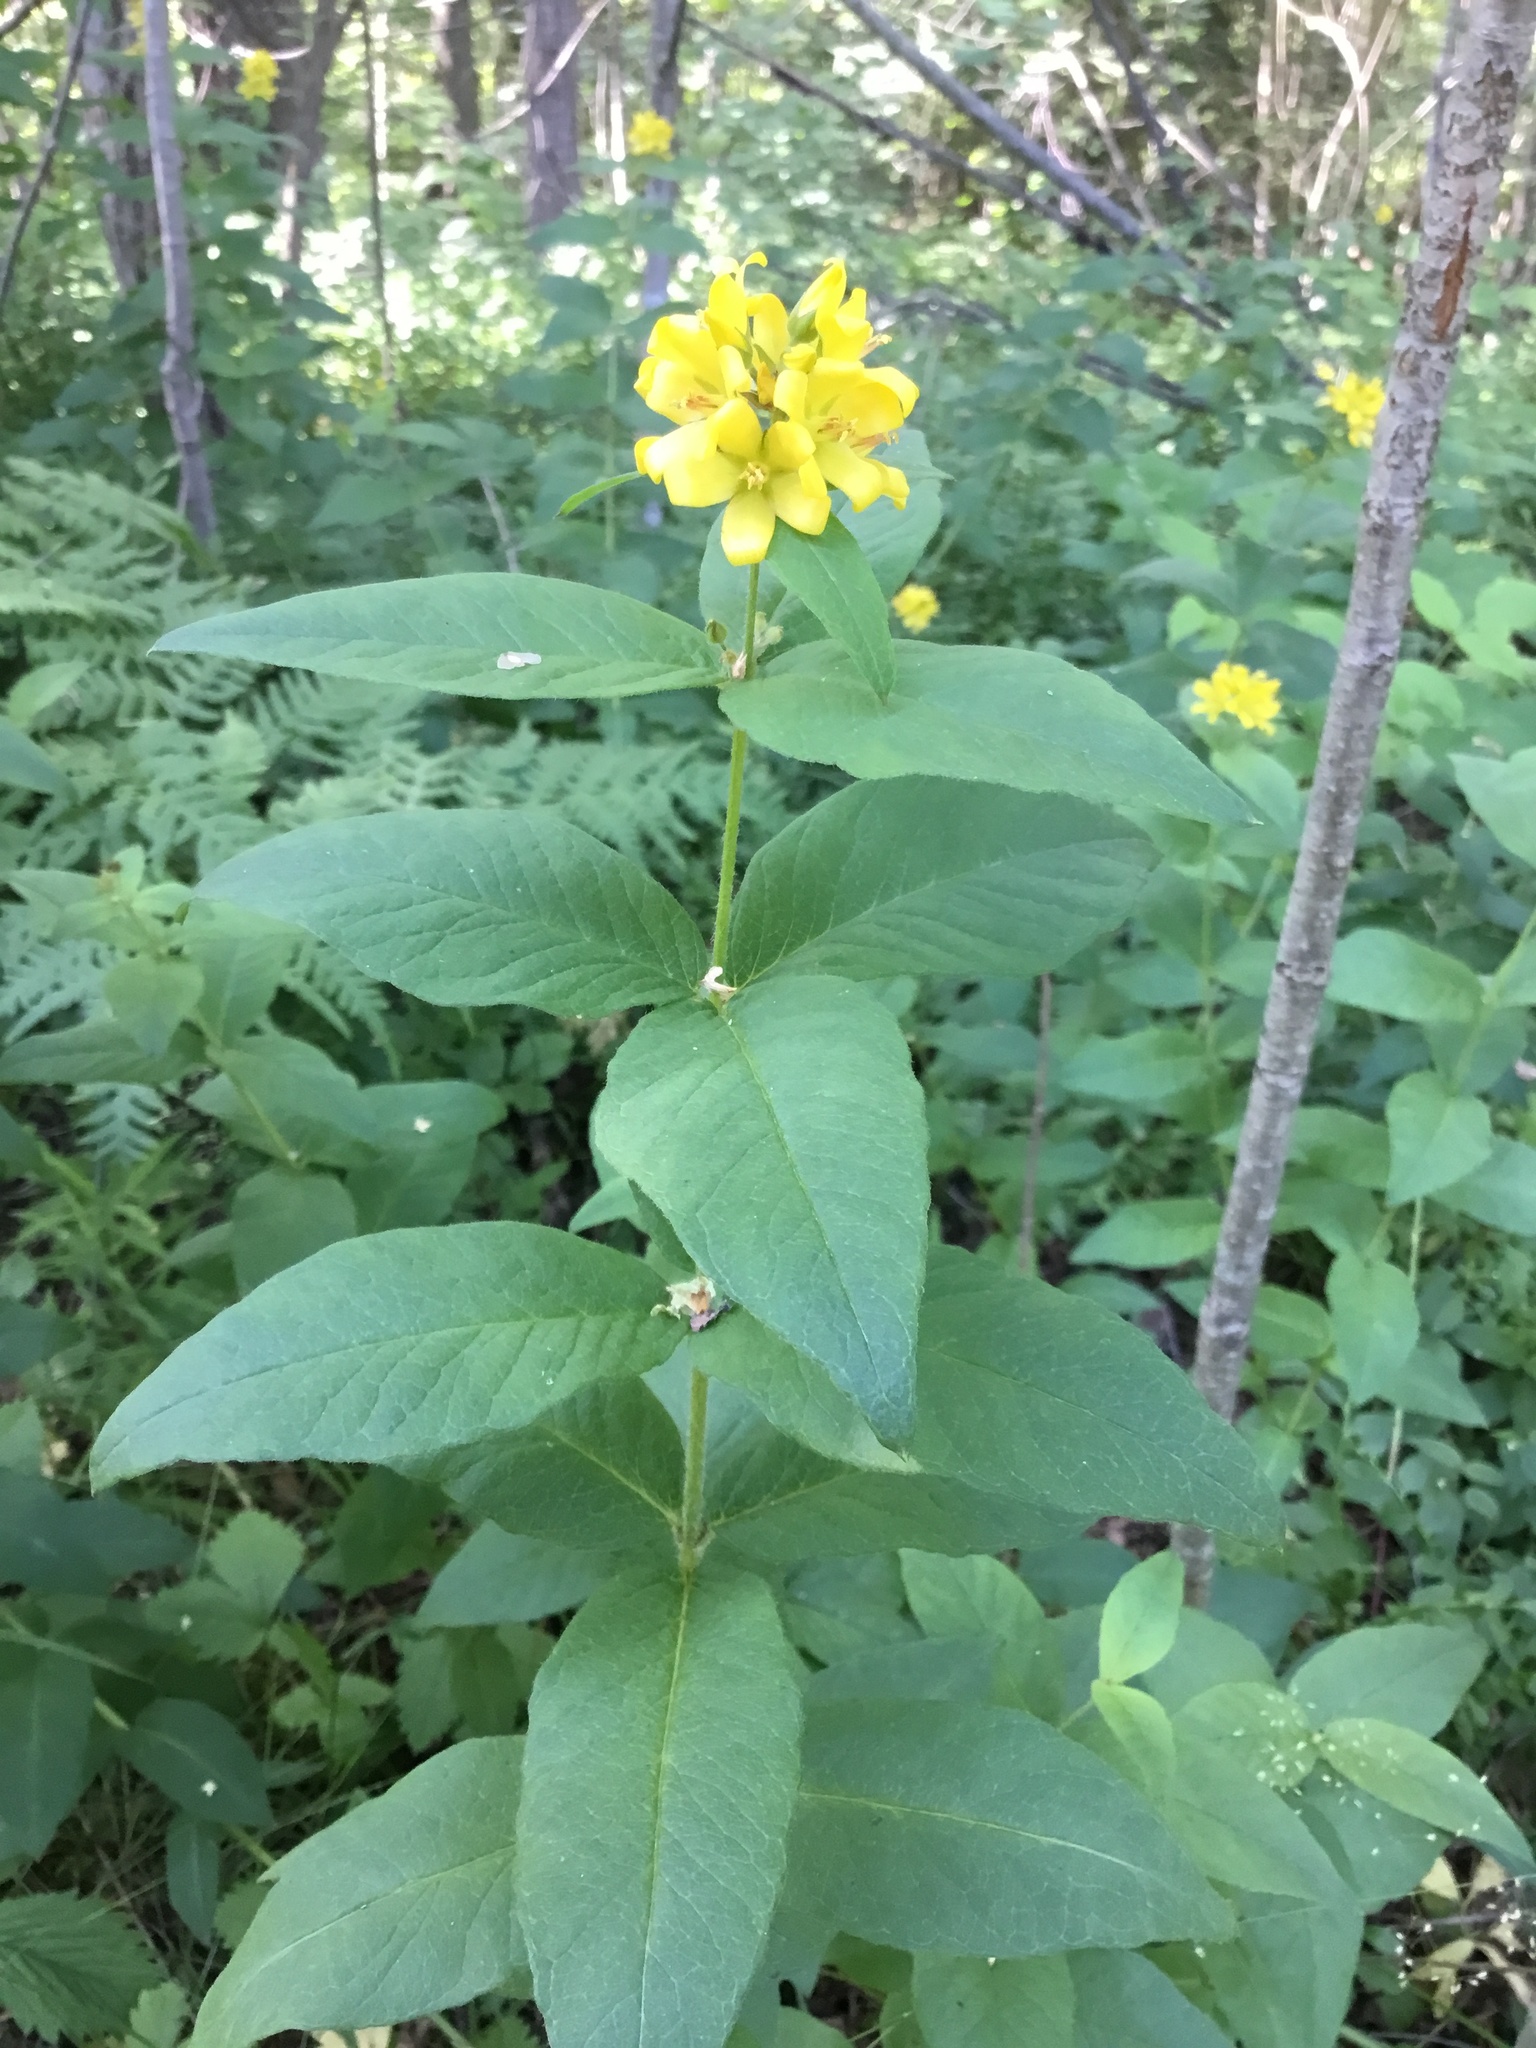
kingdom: Plantae
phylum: Tracheophyta
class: Magnoliopsida
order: Ericales
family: Primulaceae
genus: Lysimachia
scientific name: Lysimachia vulgaris
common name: Yellow loosestrife
